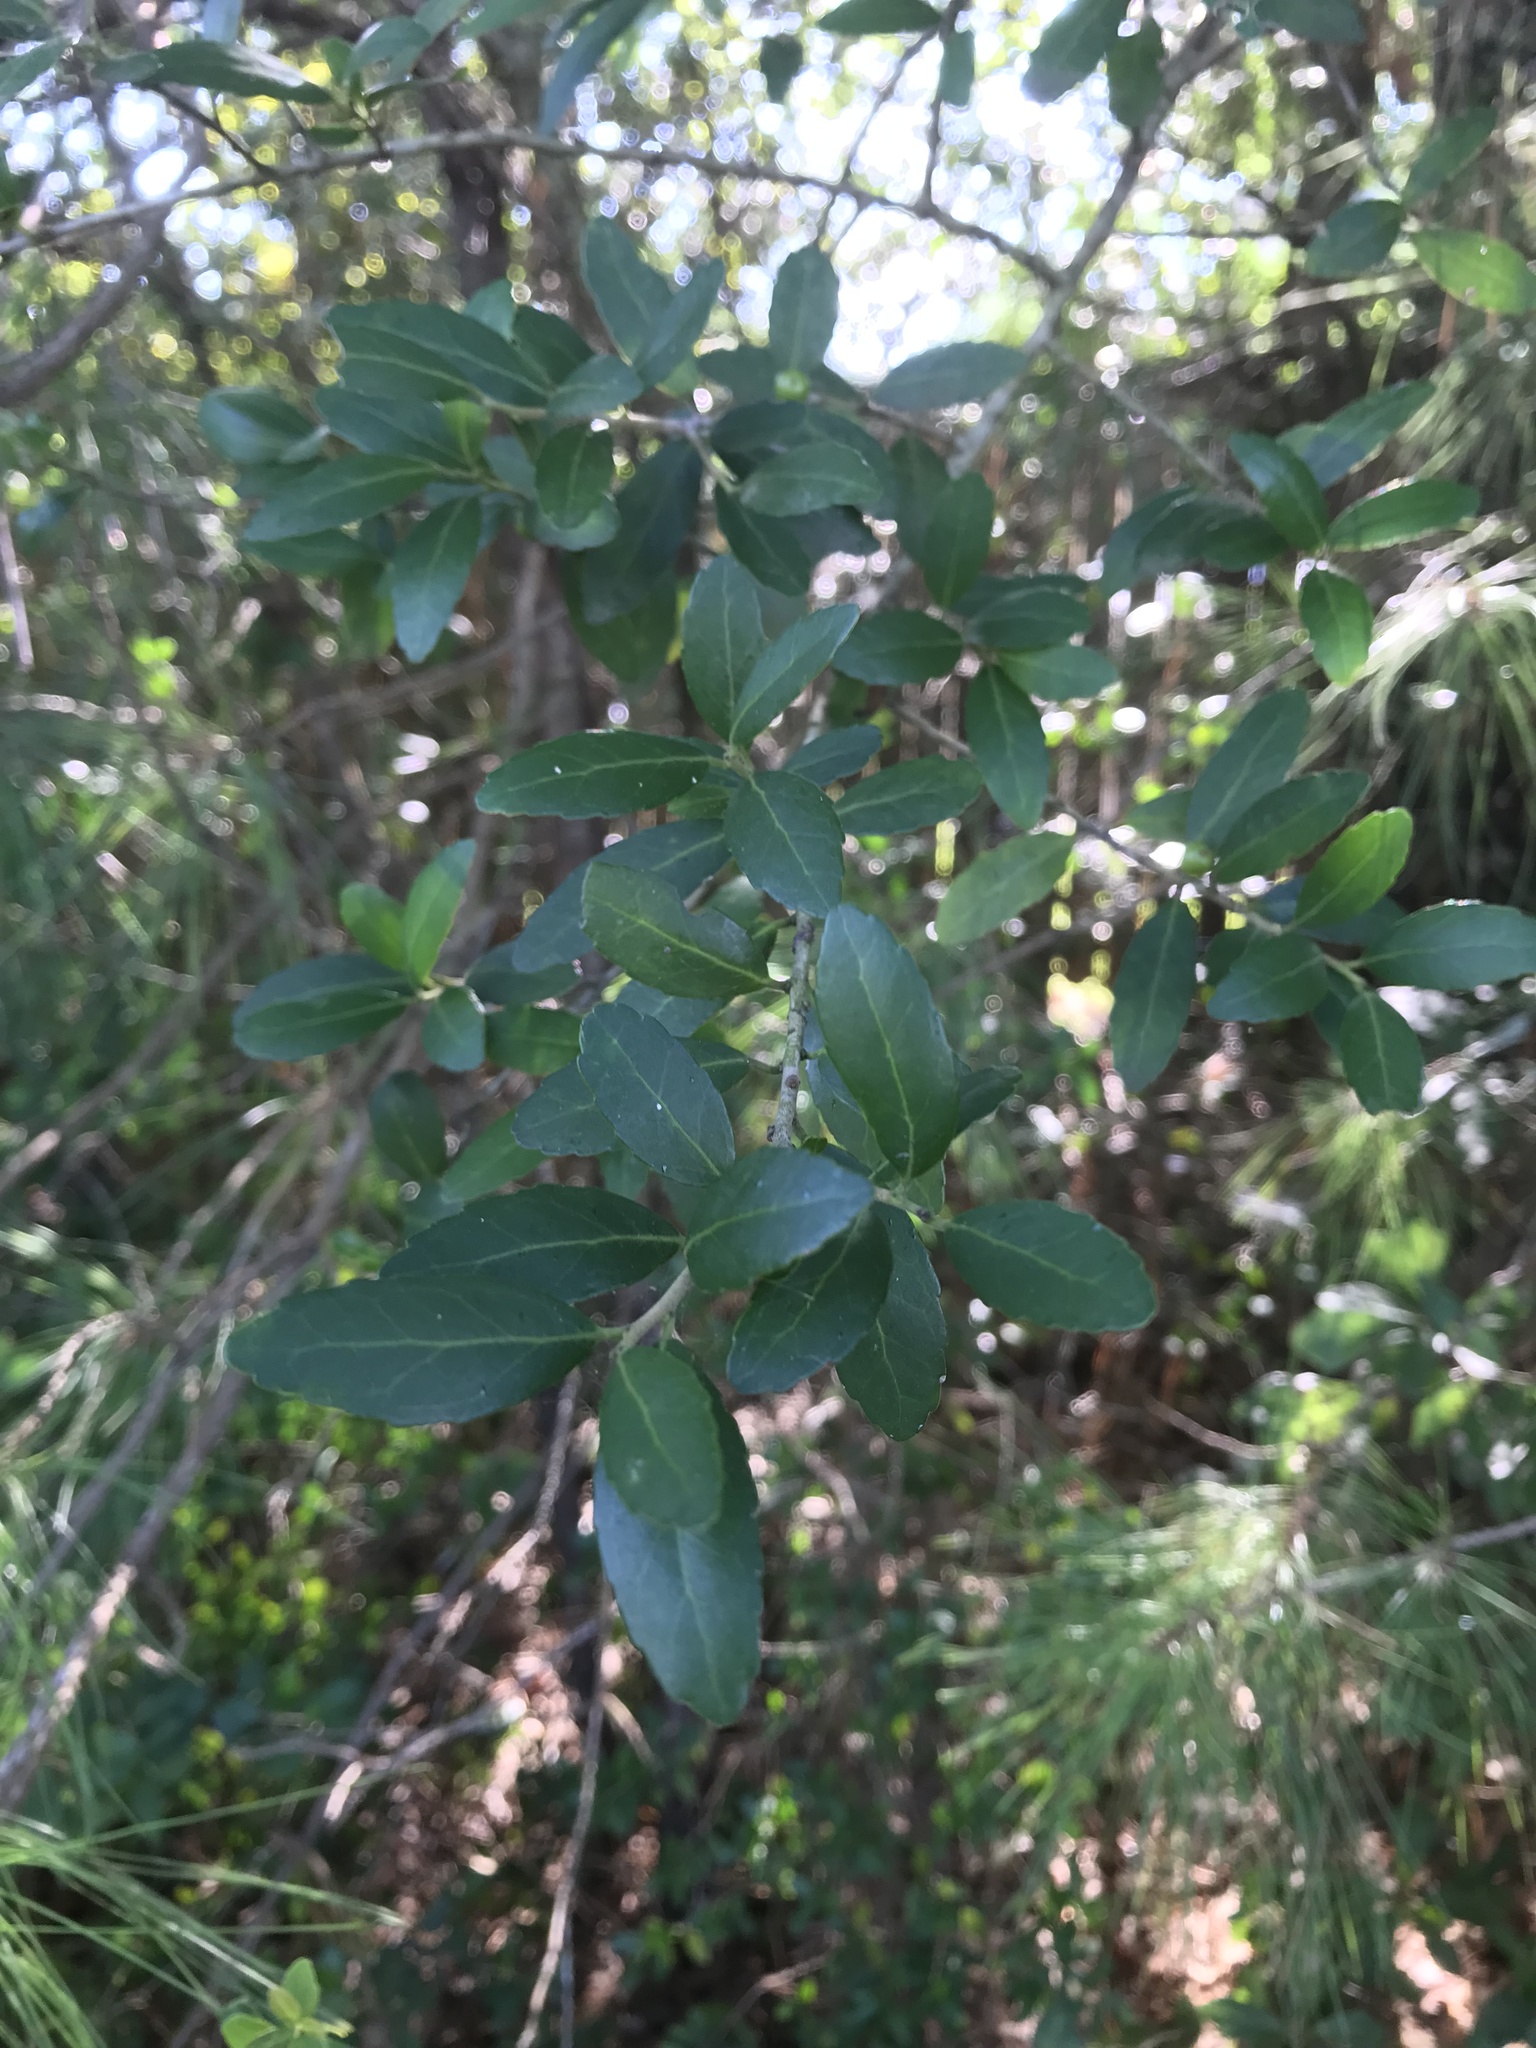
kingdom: Plantae
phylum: Tracheophyta
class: Magnoliopsida
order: Aquifoliales
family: Aquifoliaceae
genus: Ilex
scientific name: Ilex vomitoria
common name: Yaupon holly
